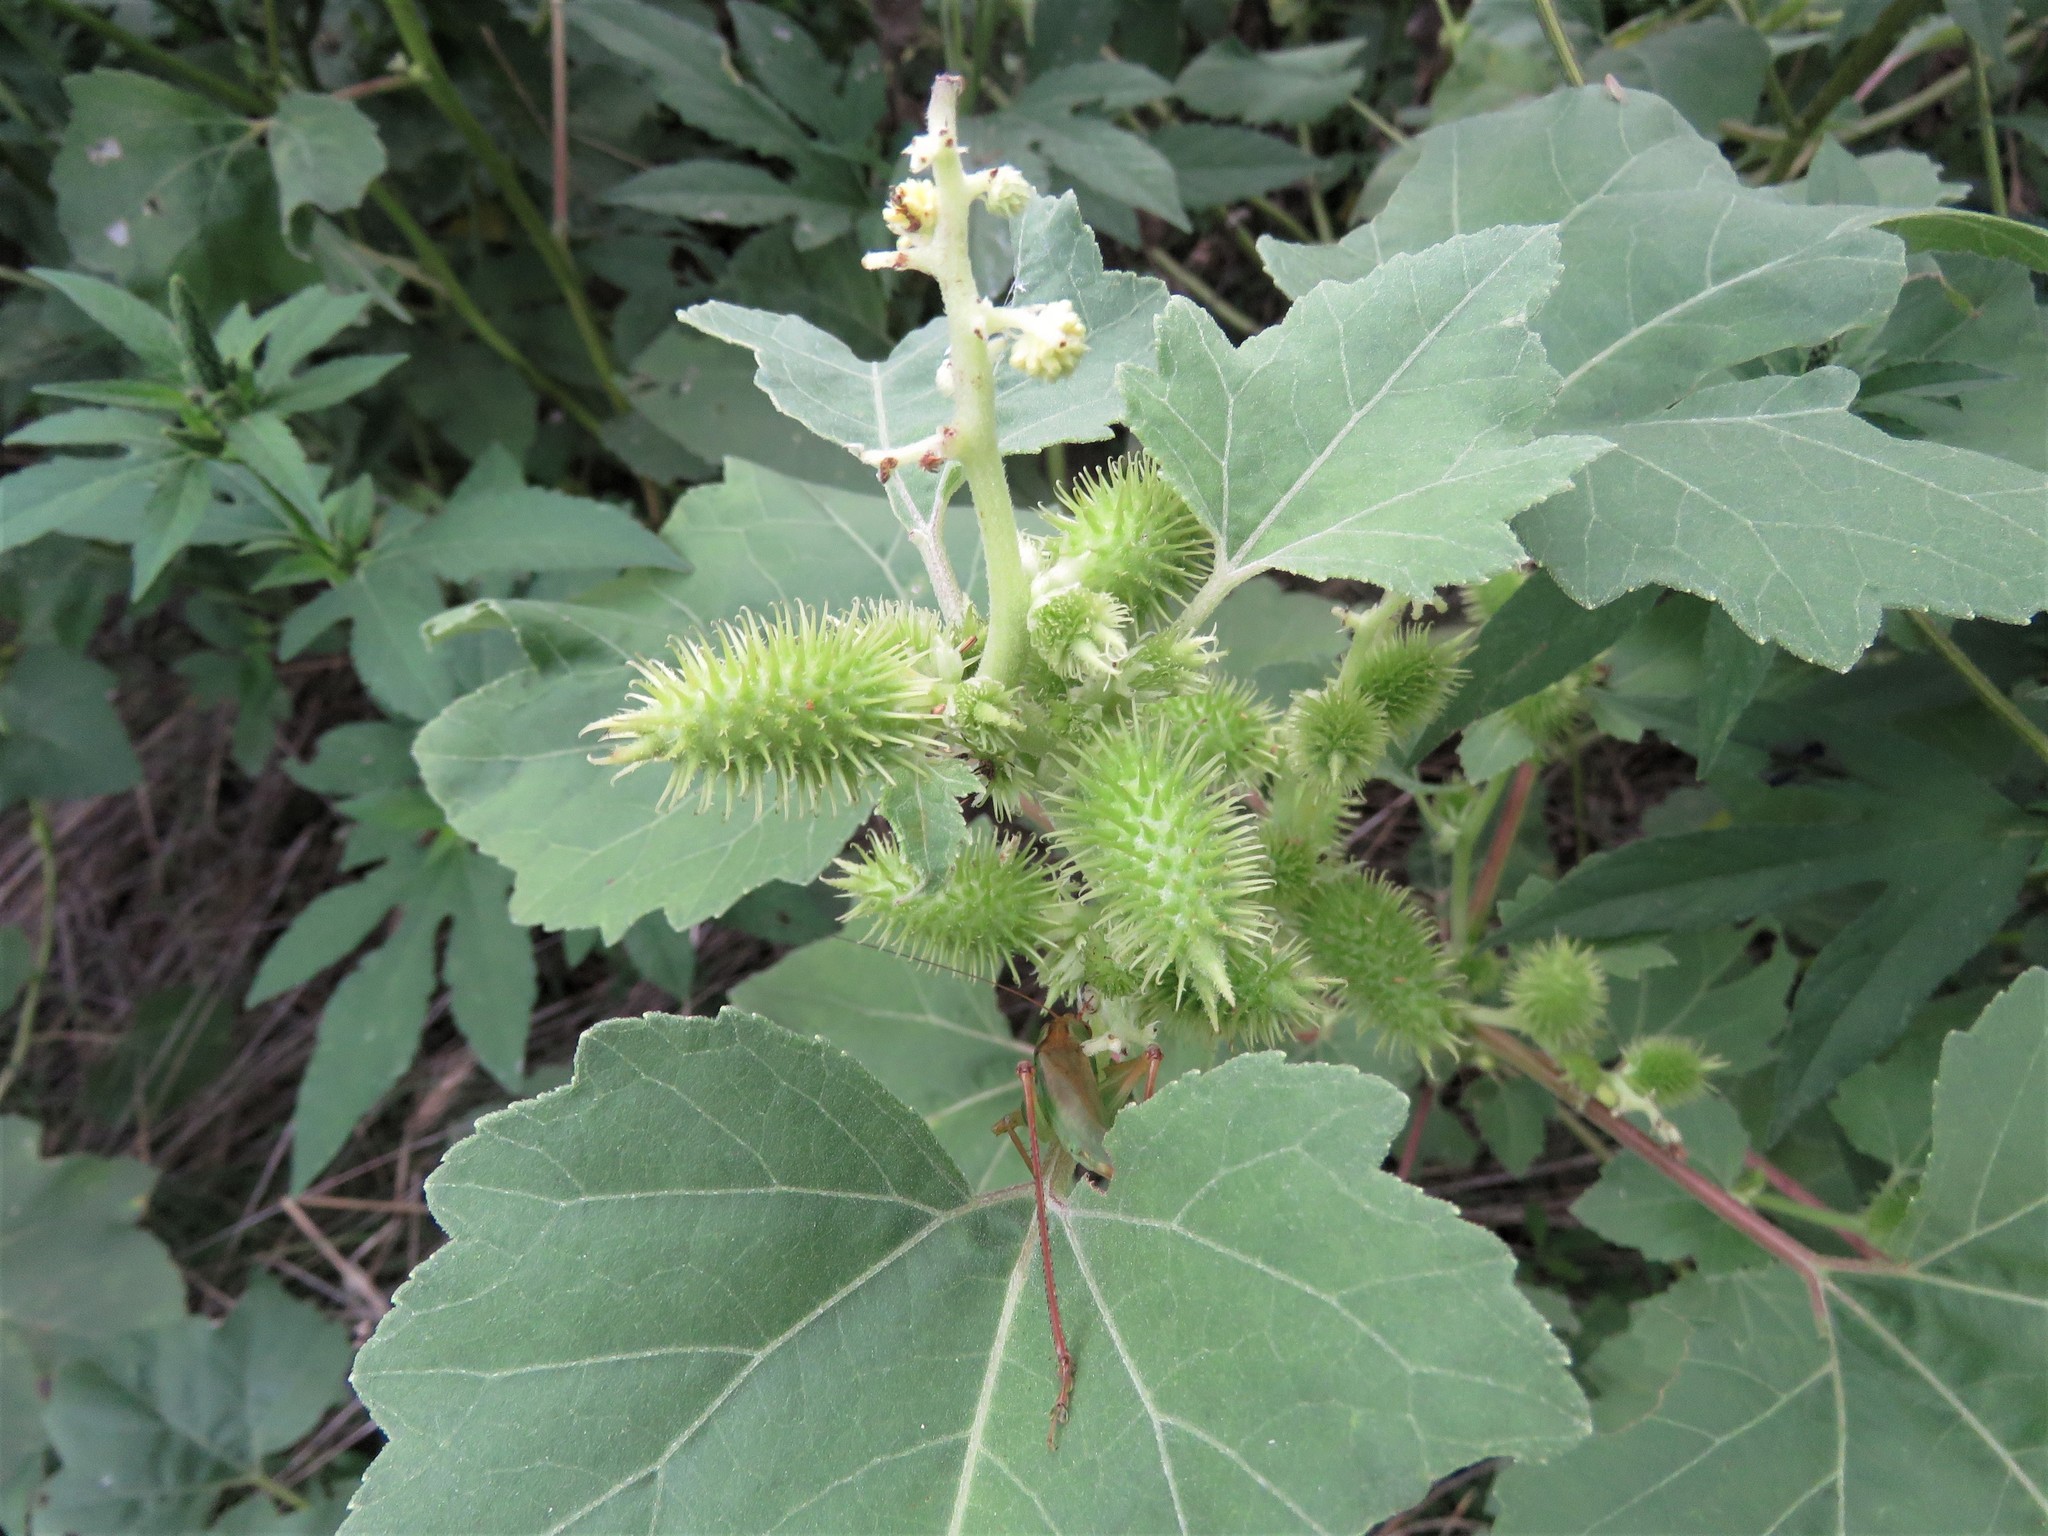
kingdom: Plantae
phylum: Tracheophyta
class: Magnoliopsida
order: Asterales
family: Asteraceae
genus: Xanthium
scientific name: Xanthium strumarium
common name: Rough cocklebur
